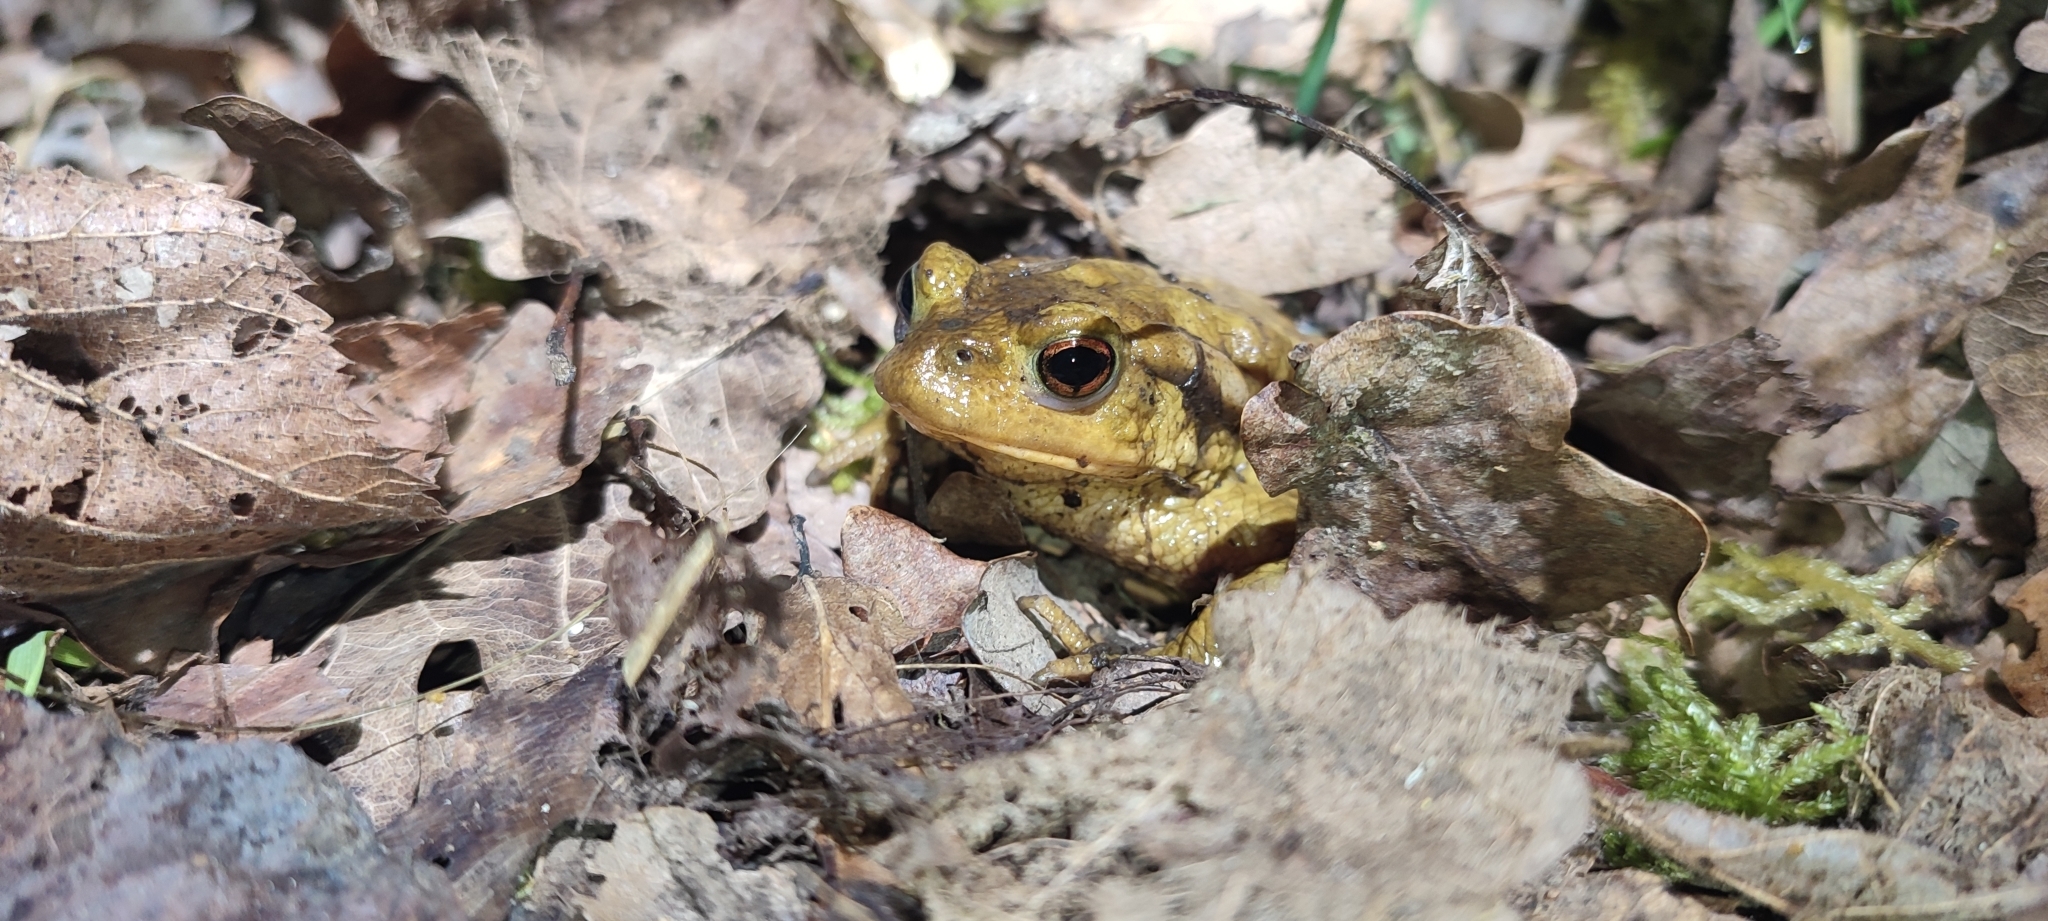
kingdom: Animalia
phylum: Chordata
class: Amphibia
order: Anura
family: Bufonidae
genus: Bufo
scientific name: Bufo spinosus
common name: Western common toad
